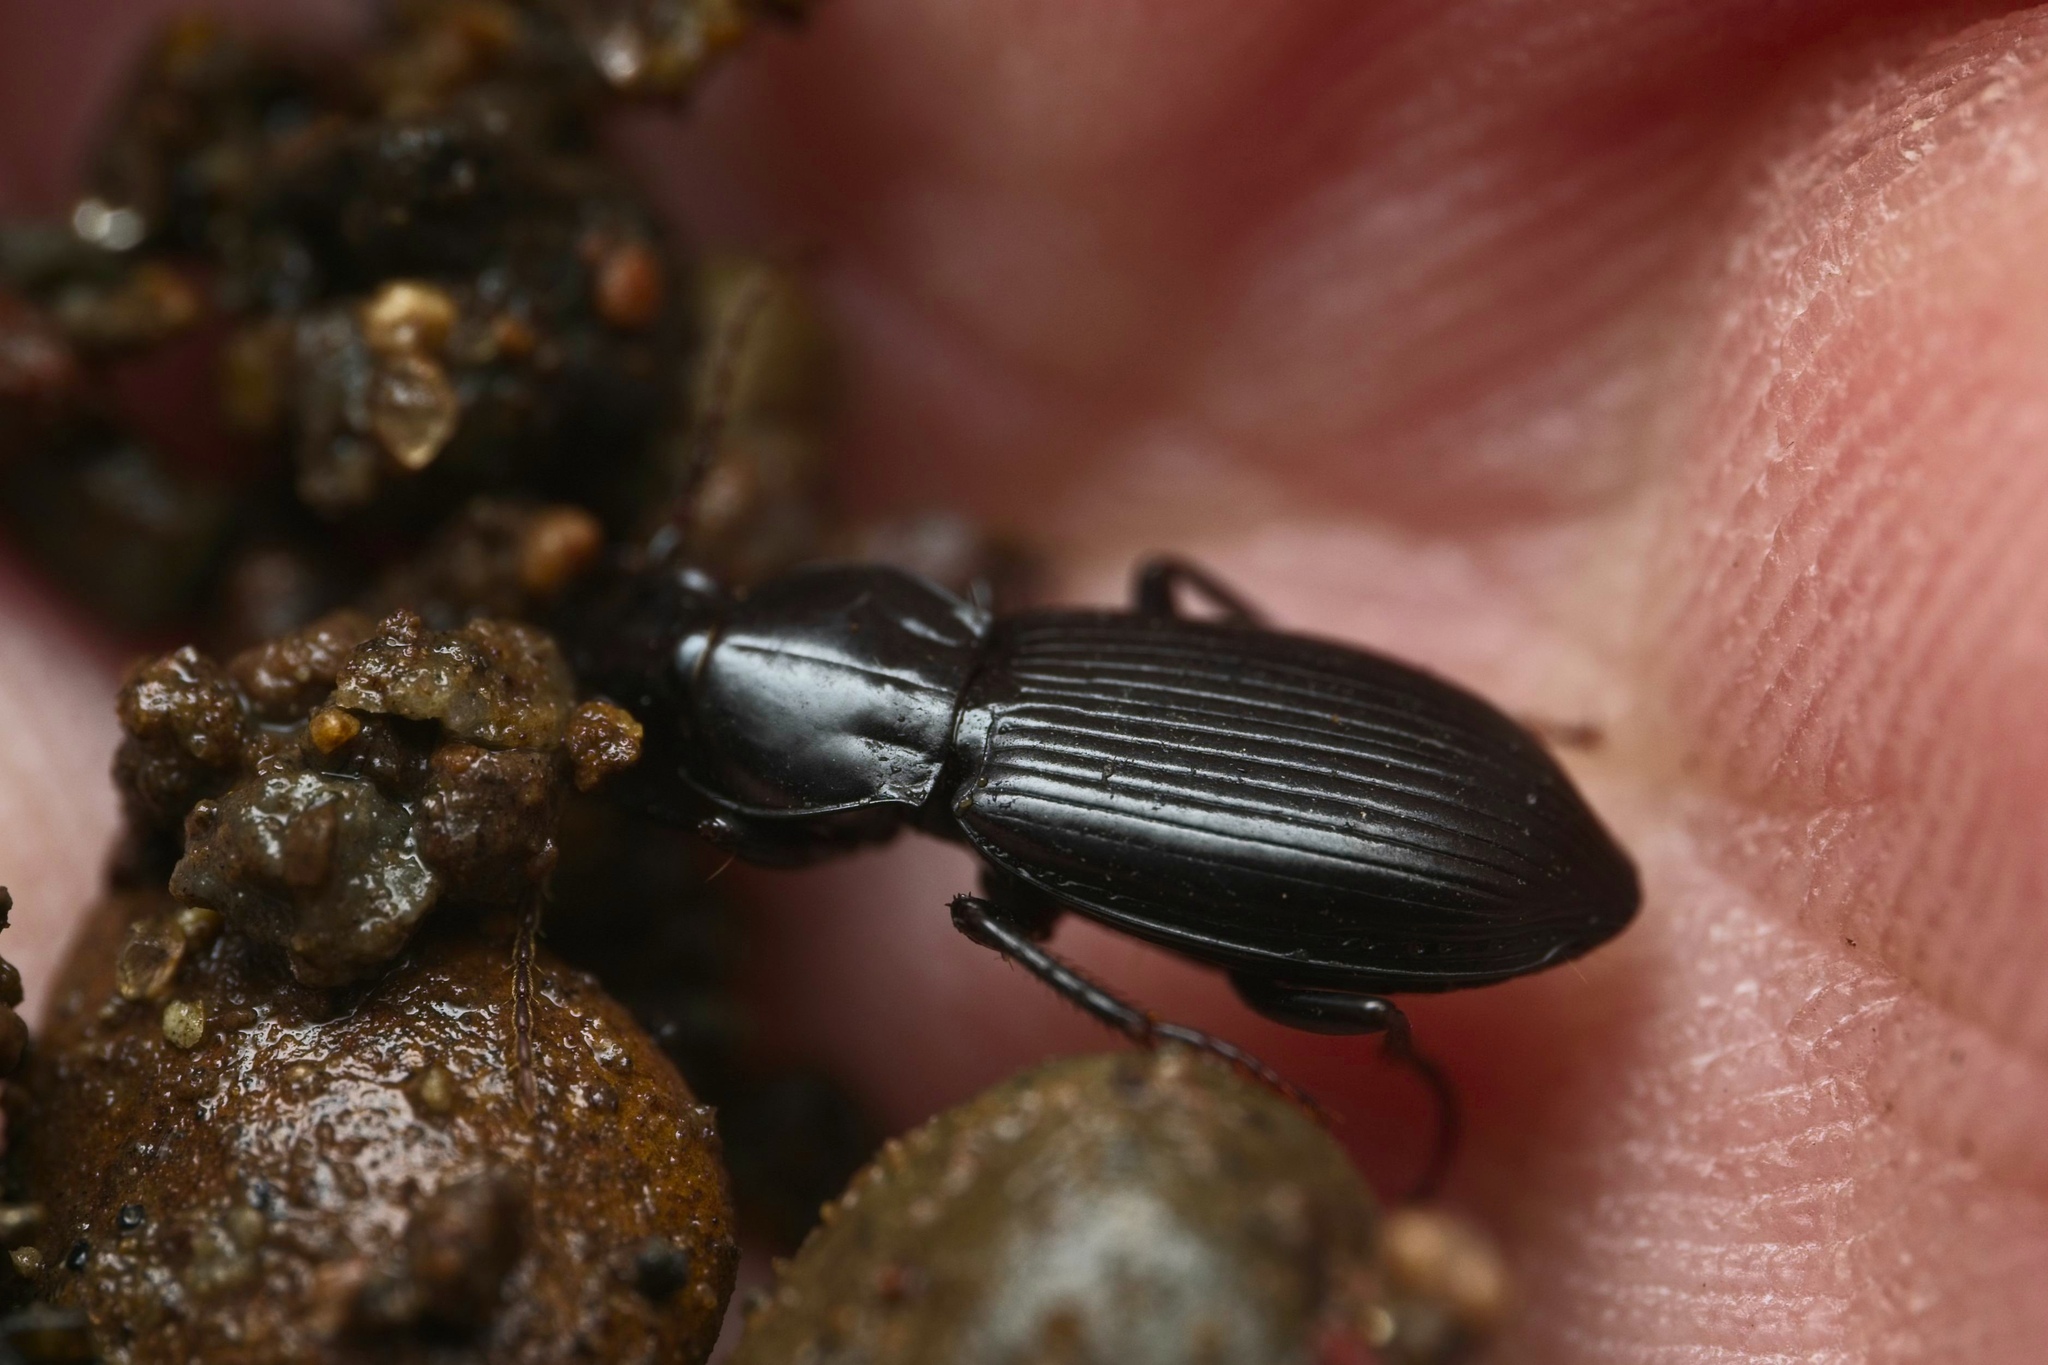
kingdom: Animalia
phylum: Arthropoda
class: Insecta
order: Coleoptera
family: Carabidae
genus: Rhytisternus
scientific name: Rhytisternus miser
